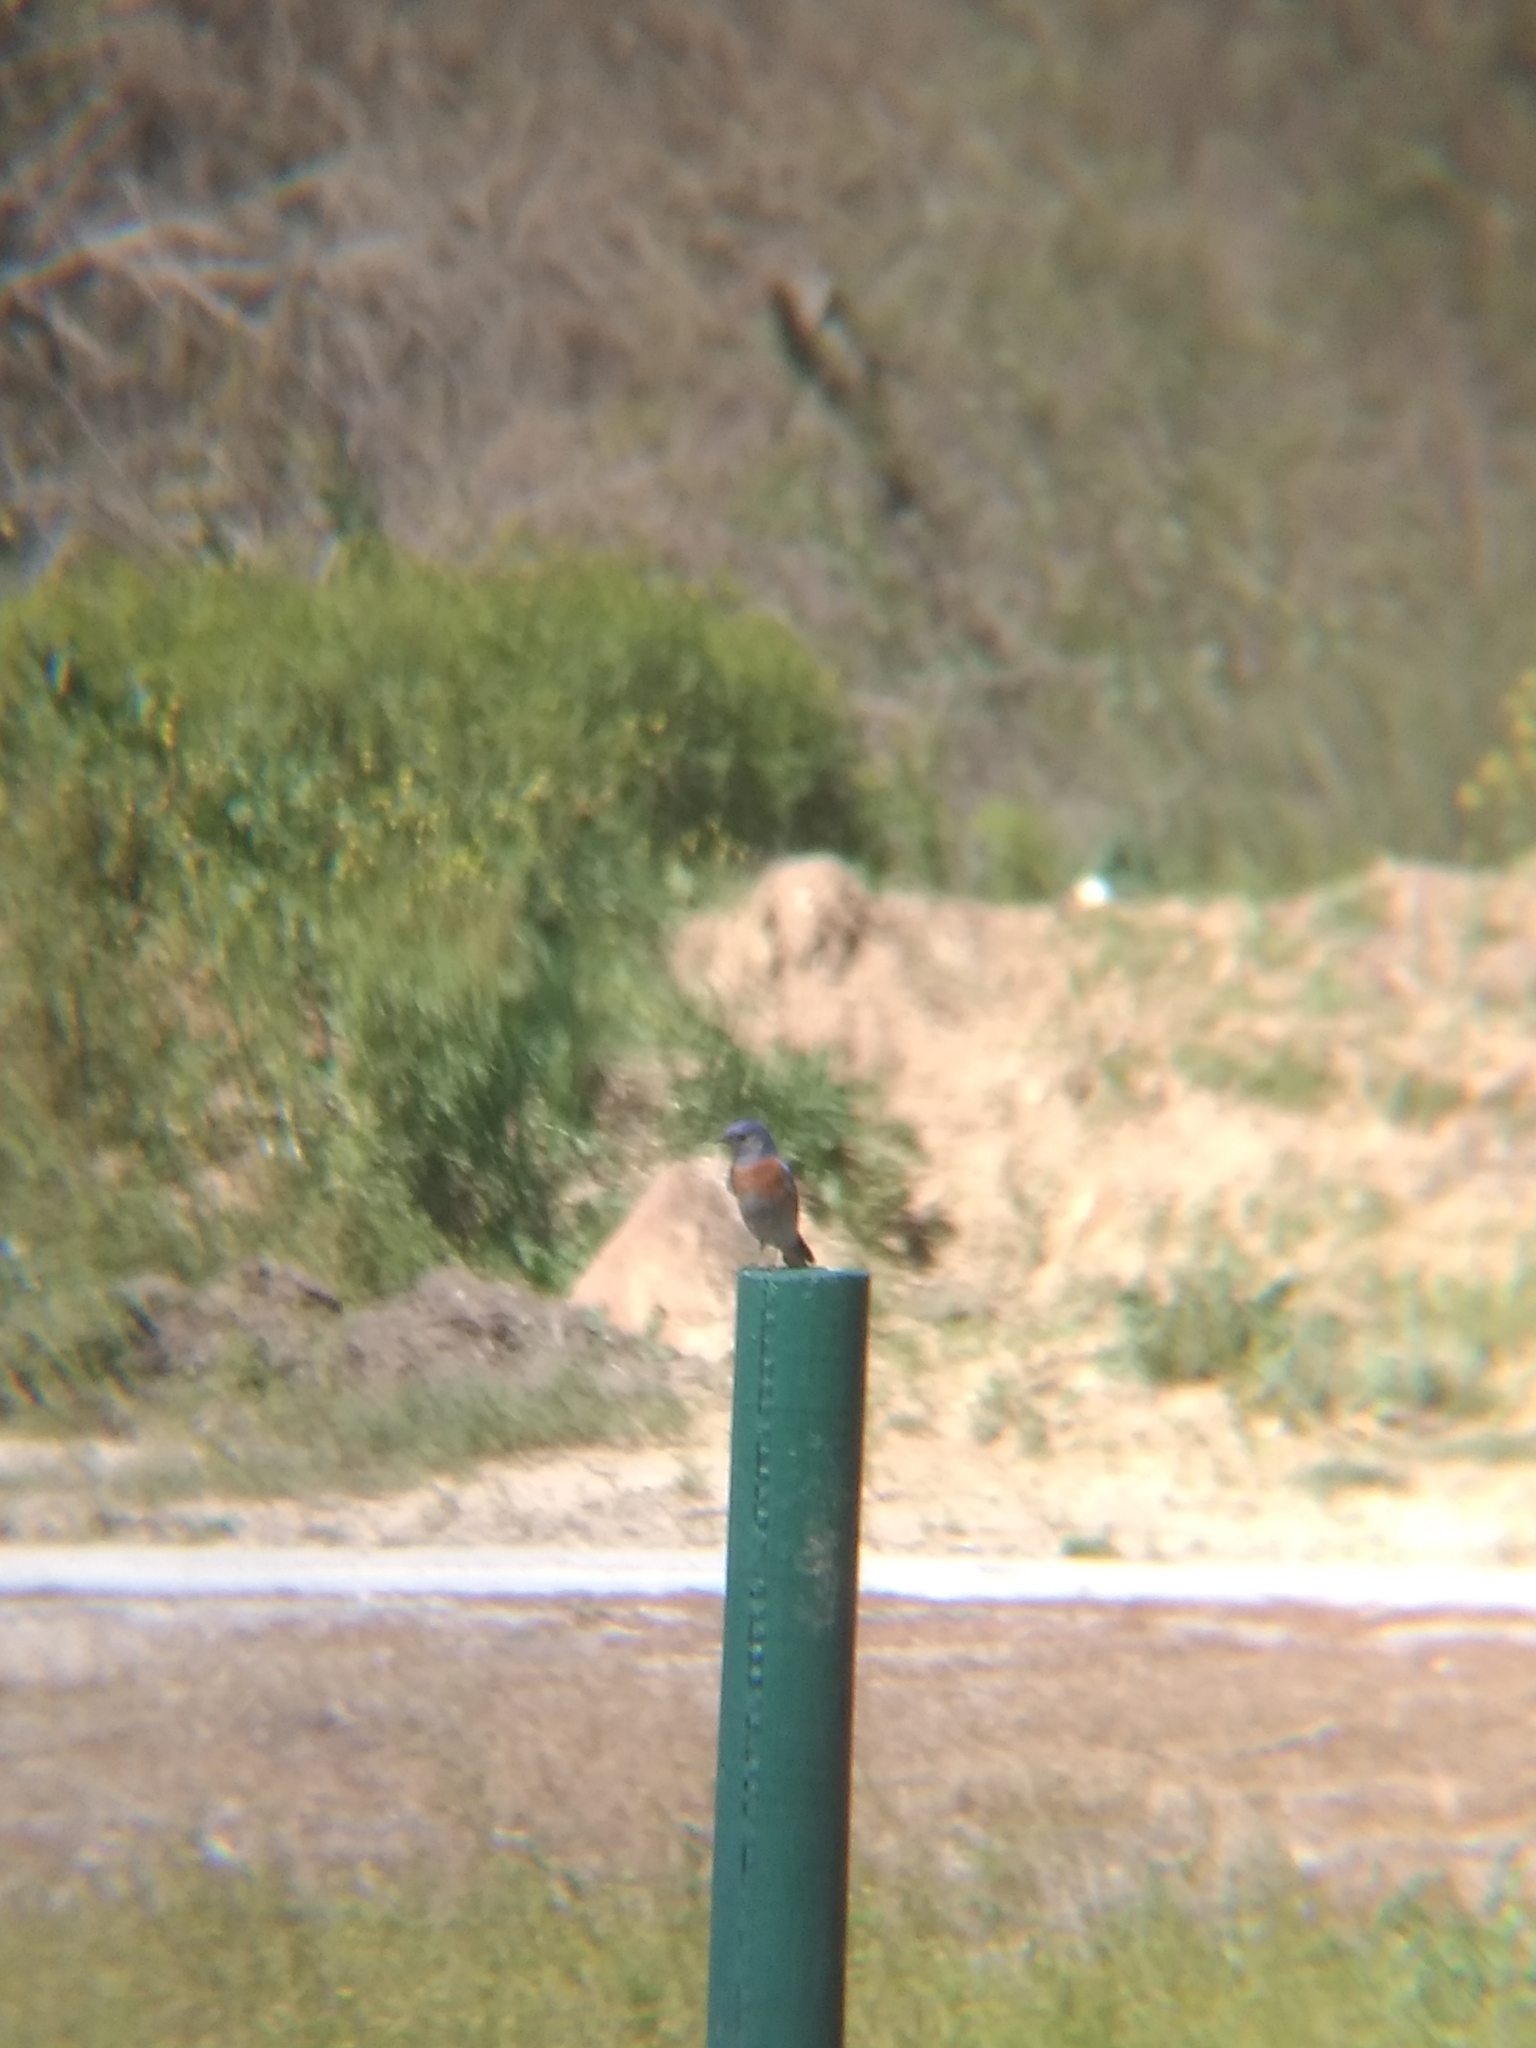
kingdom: Animalia
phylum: Chordata
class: Aves
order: Passeriformes
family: Turdidae
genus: Sialia
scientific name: Sialia mexicana
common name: Western bluebird
